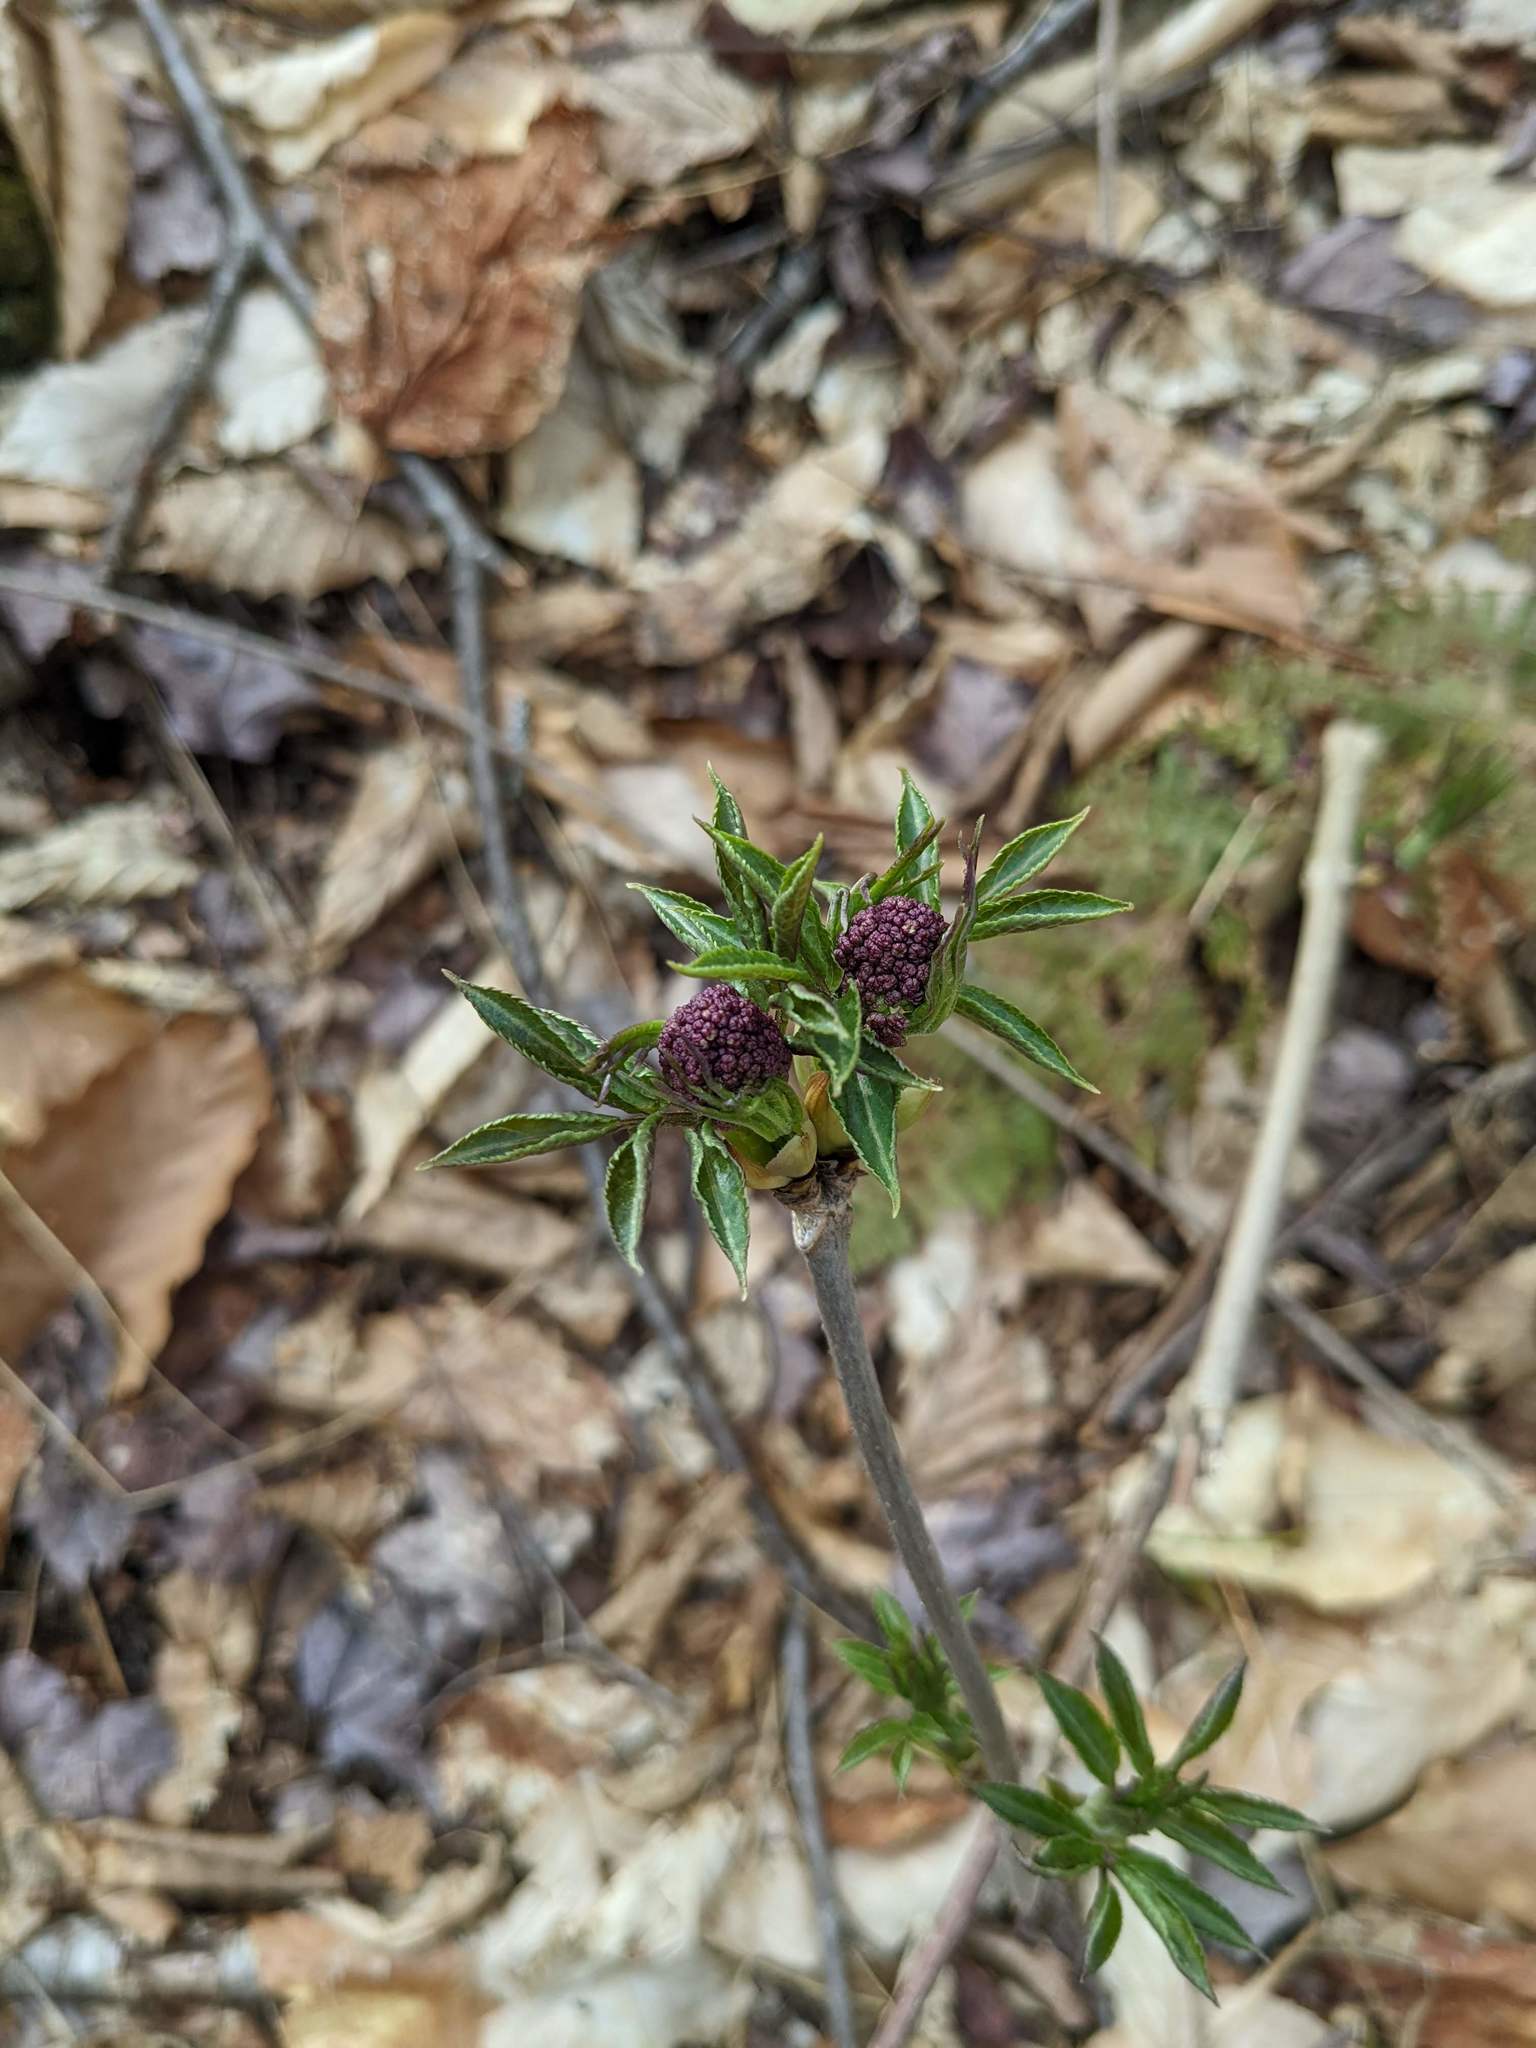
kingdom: Plantae
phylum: Tracheophyta
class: Magnoliopsida
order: Dipsacales
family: Viburnaceae
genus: Sambucus
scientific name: Sambucus racemosa
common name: Red-berried elder
